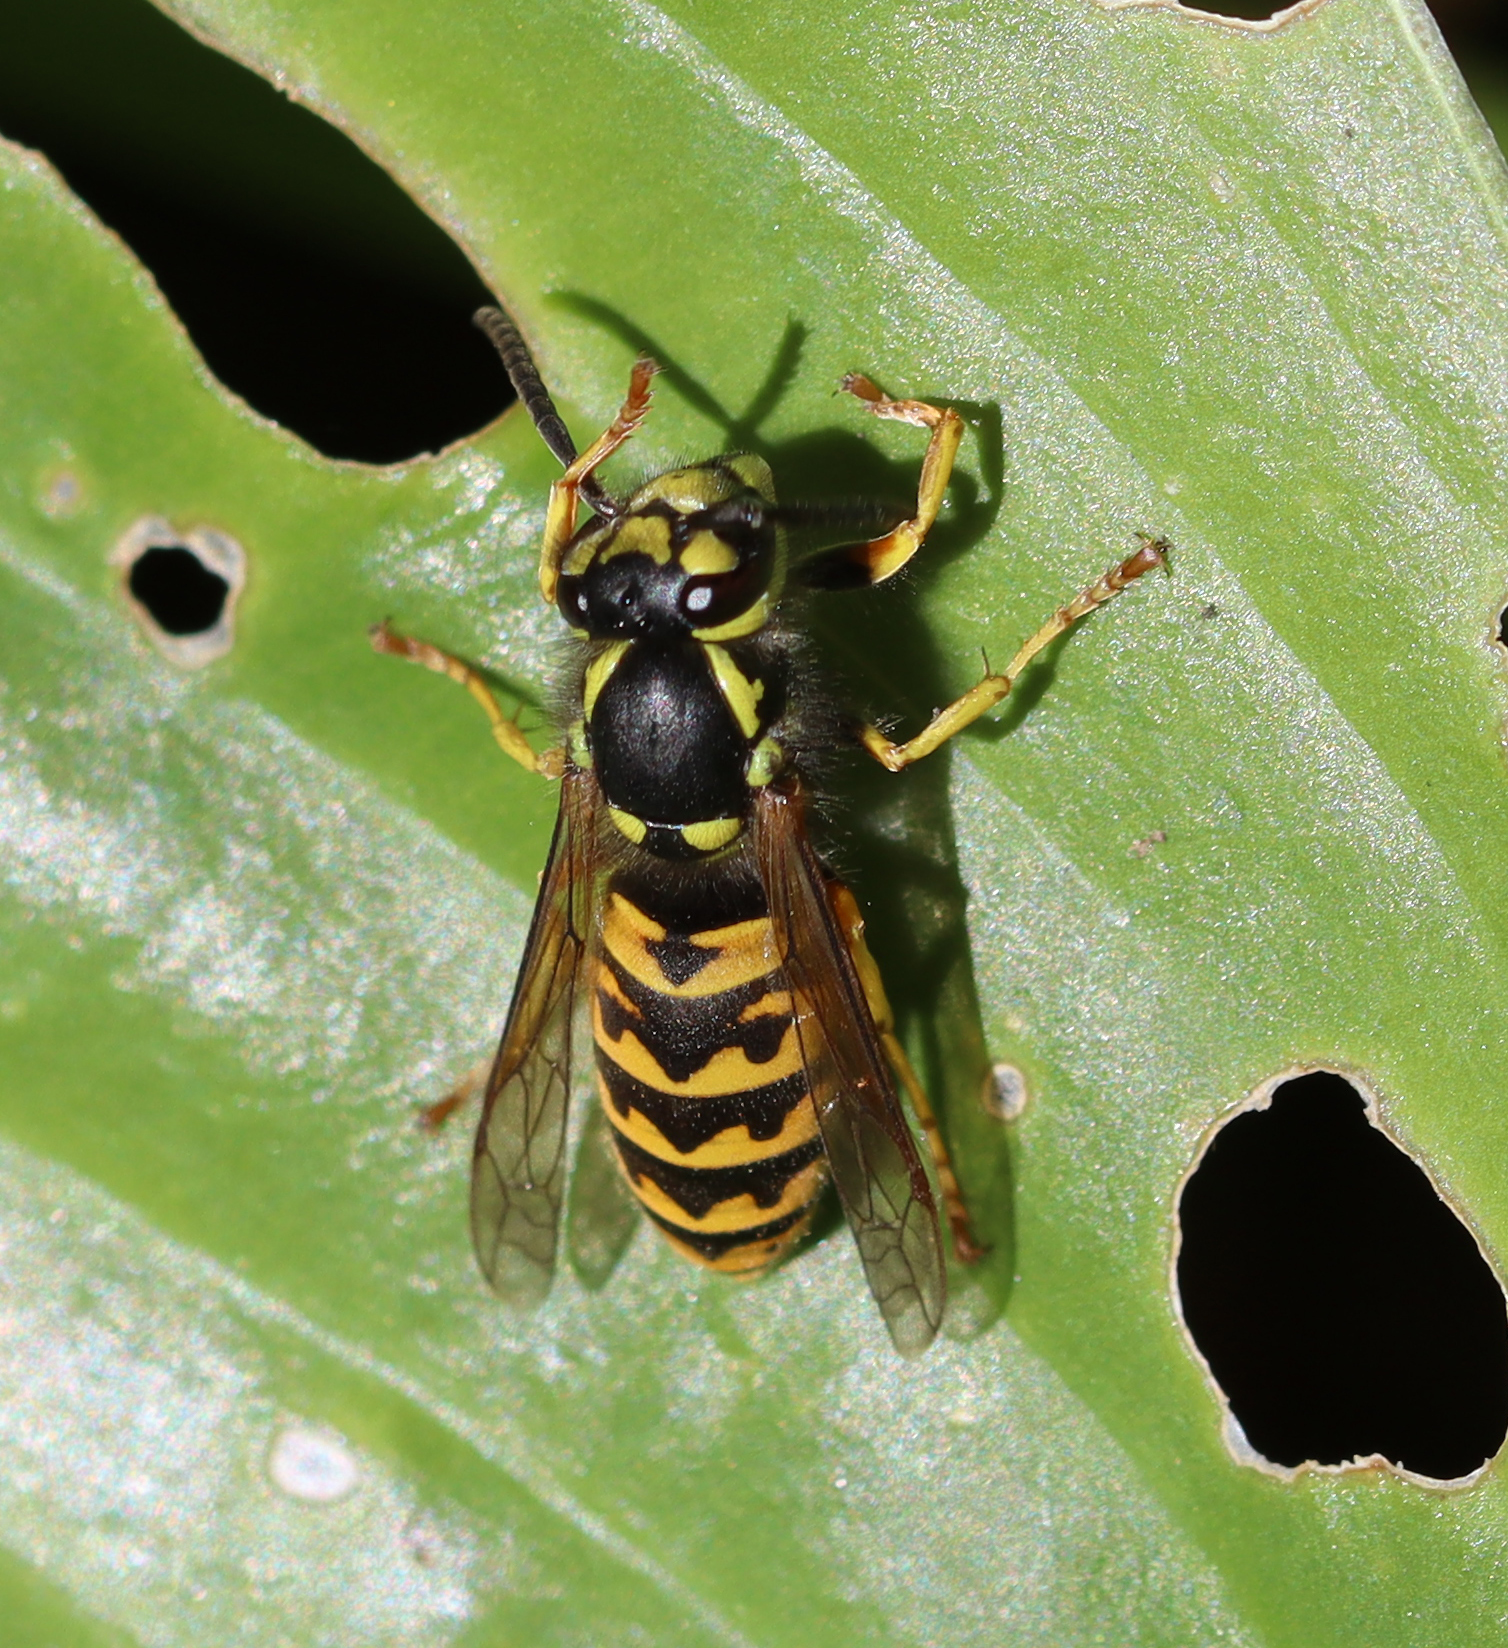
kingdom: Animalia
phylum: Arthropoda
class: Insecta
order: Hymenoptera
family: Vespidae
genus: Vespula
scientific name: Vespula germanica
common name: German wasp
